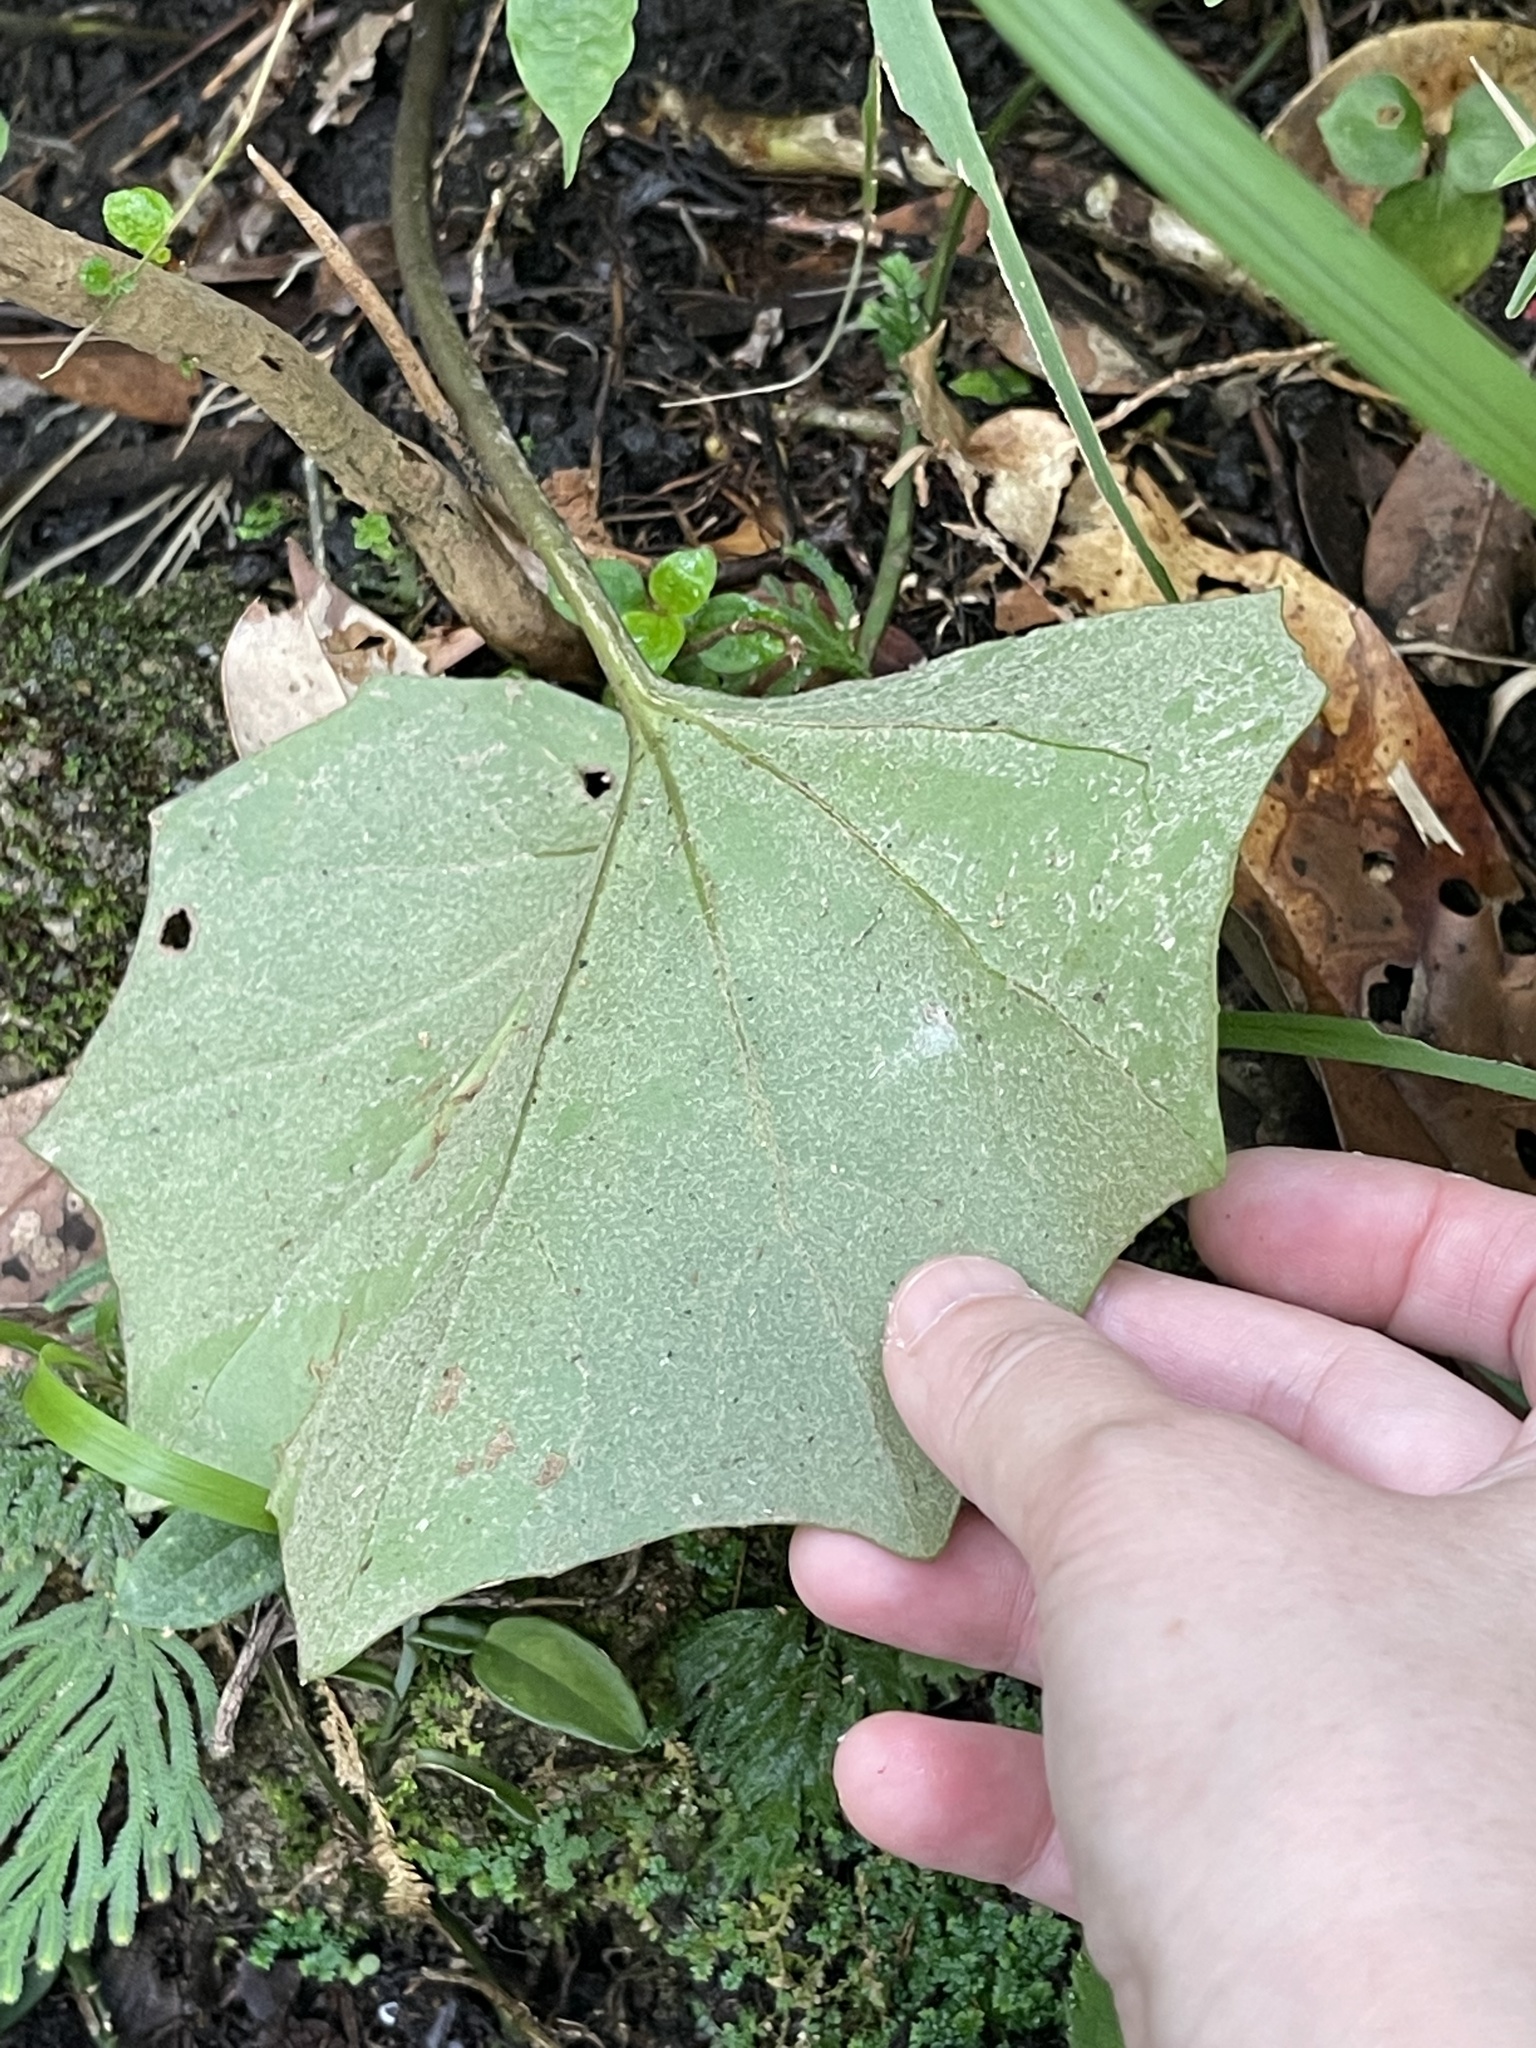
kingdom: Plantae
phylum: Tracheophyta
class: Magnoliopsida
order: Asterales
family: Asteraceae
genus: Farfugium
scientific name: Farfugium japonicum
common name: Leopardplant
